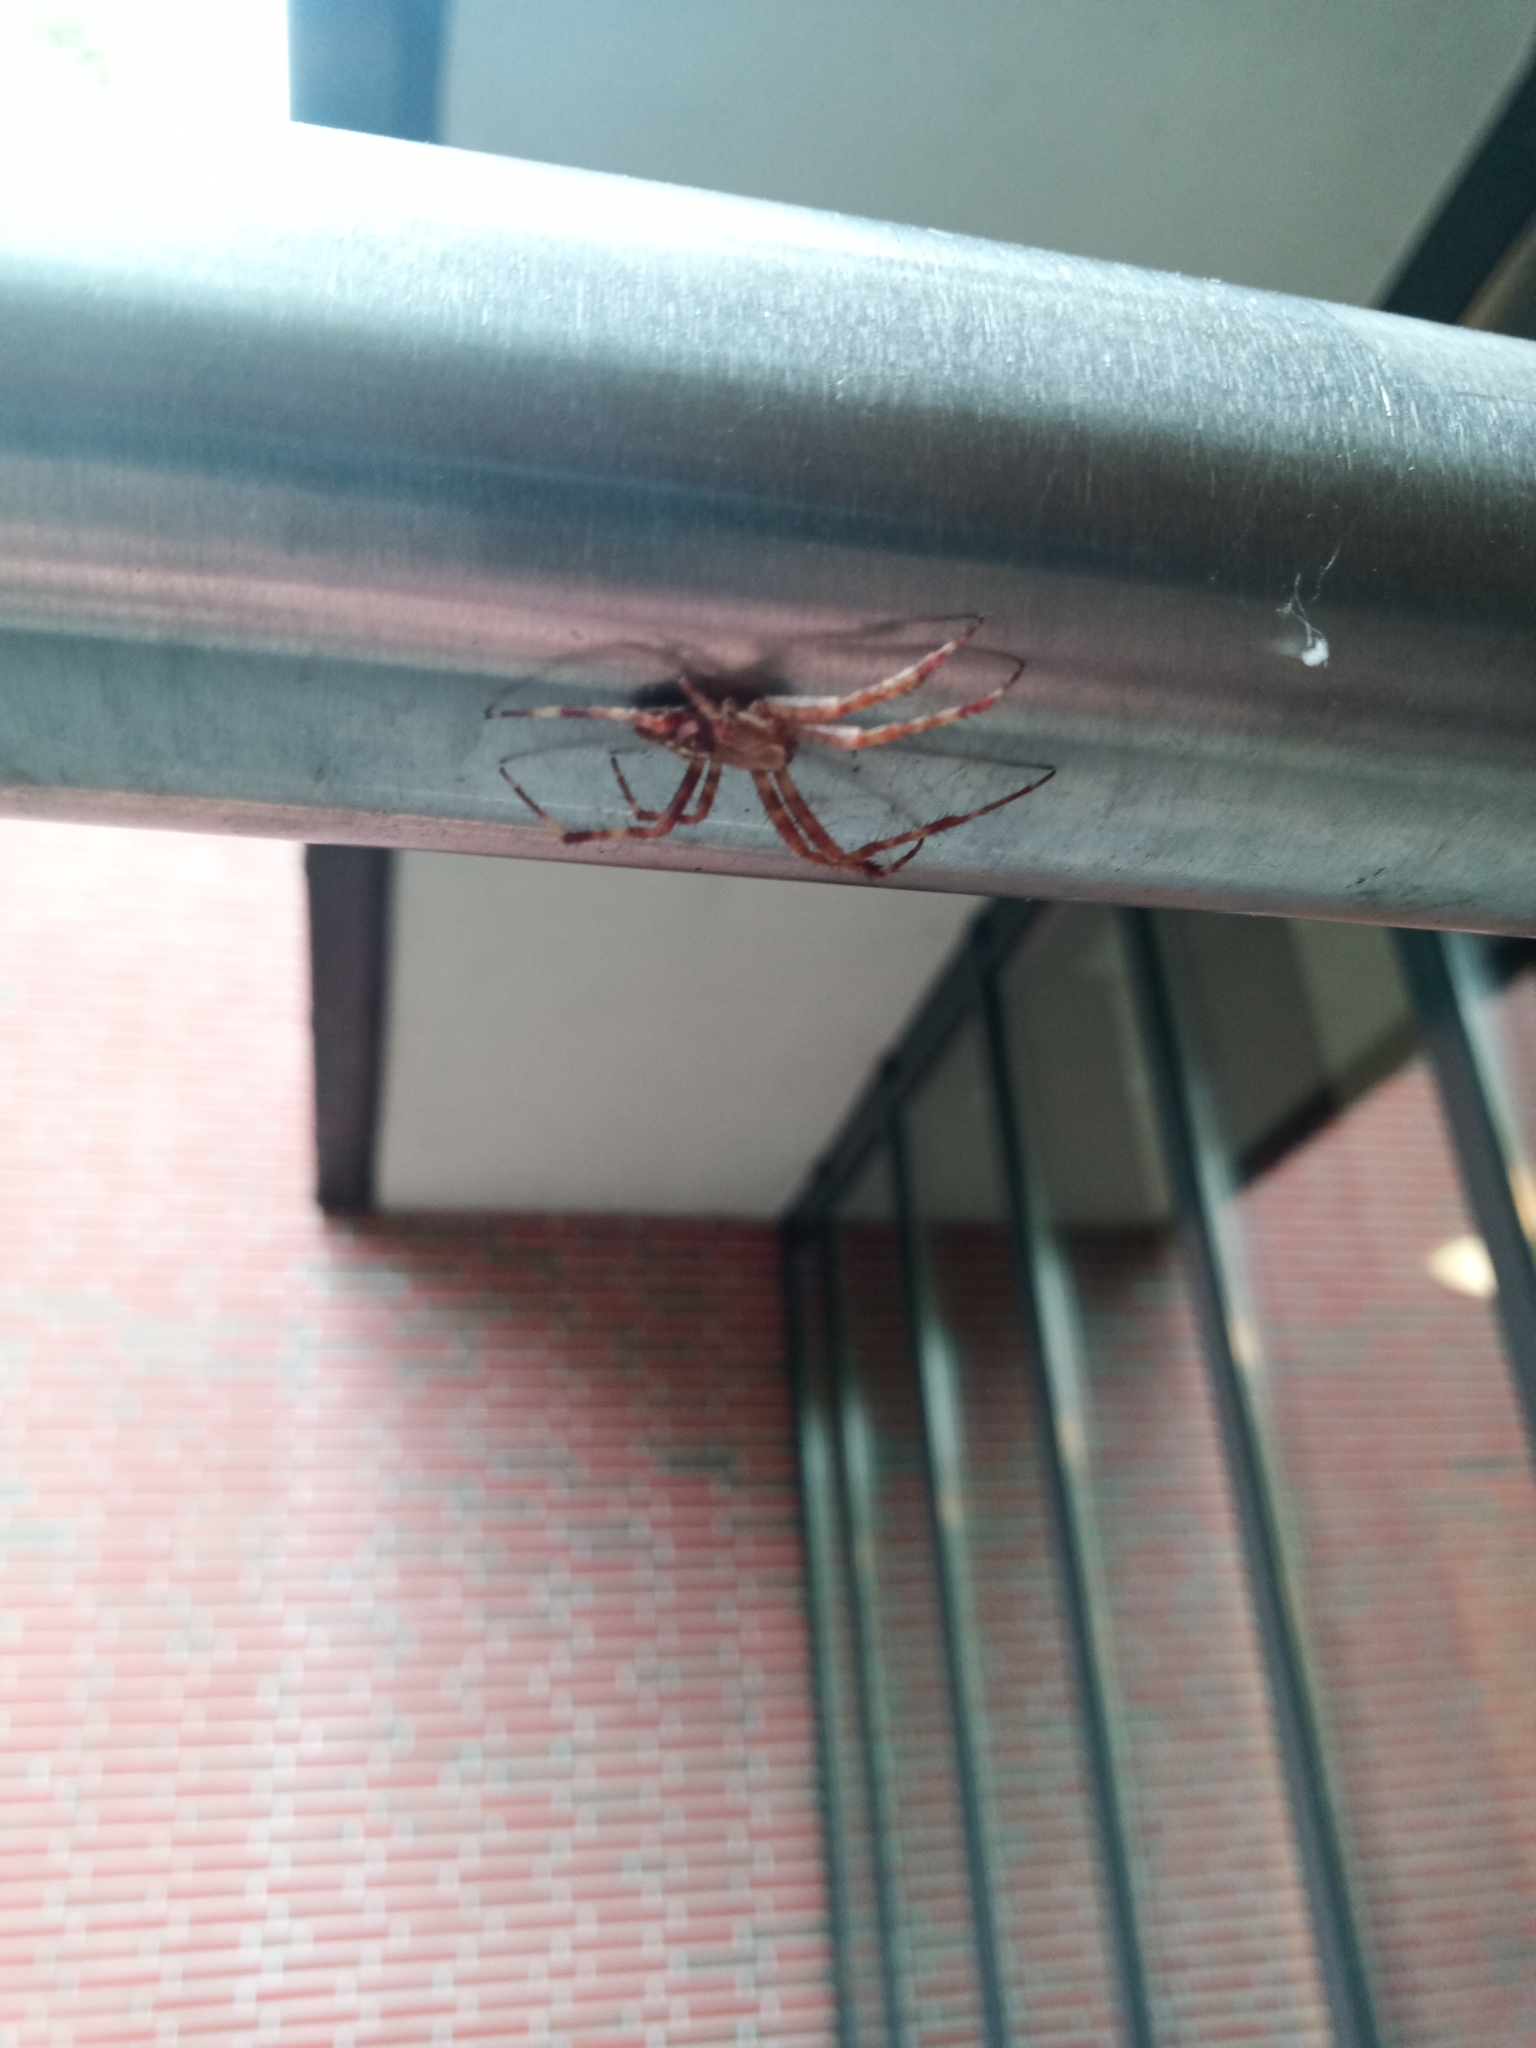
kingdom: Animalia
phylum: Arthropoda
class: Arachnida
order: Araneae
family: Araneidae
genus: Araneus
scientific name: Araneus diadematus
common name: Cross orbweaver
